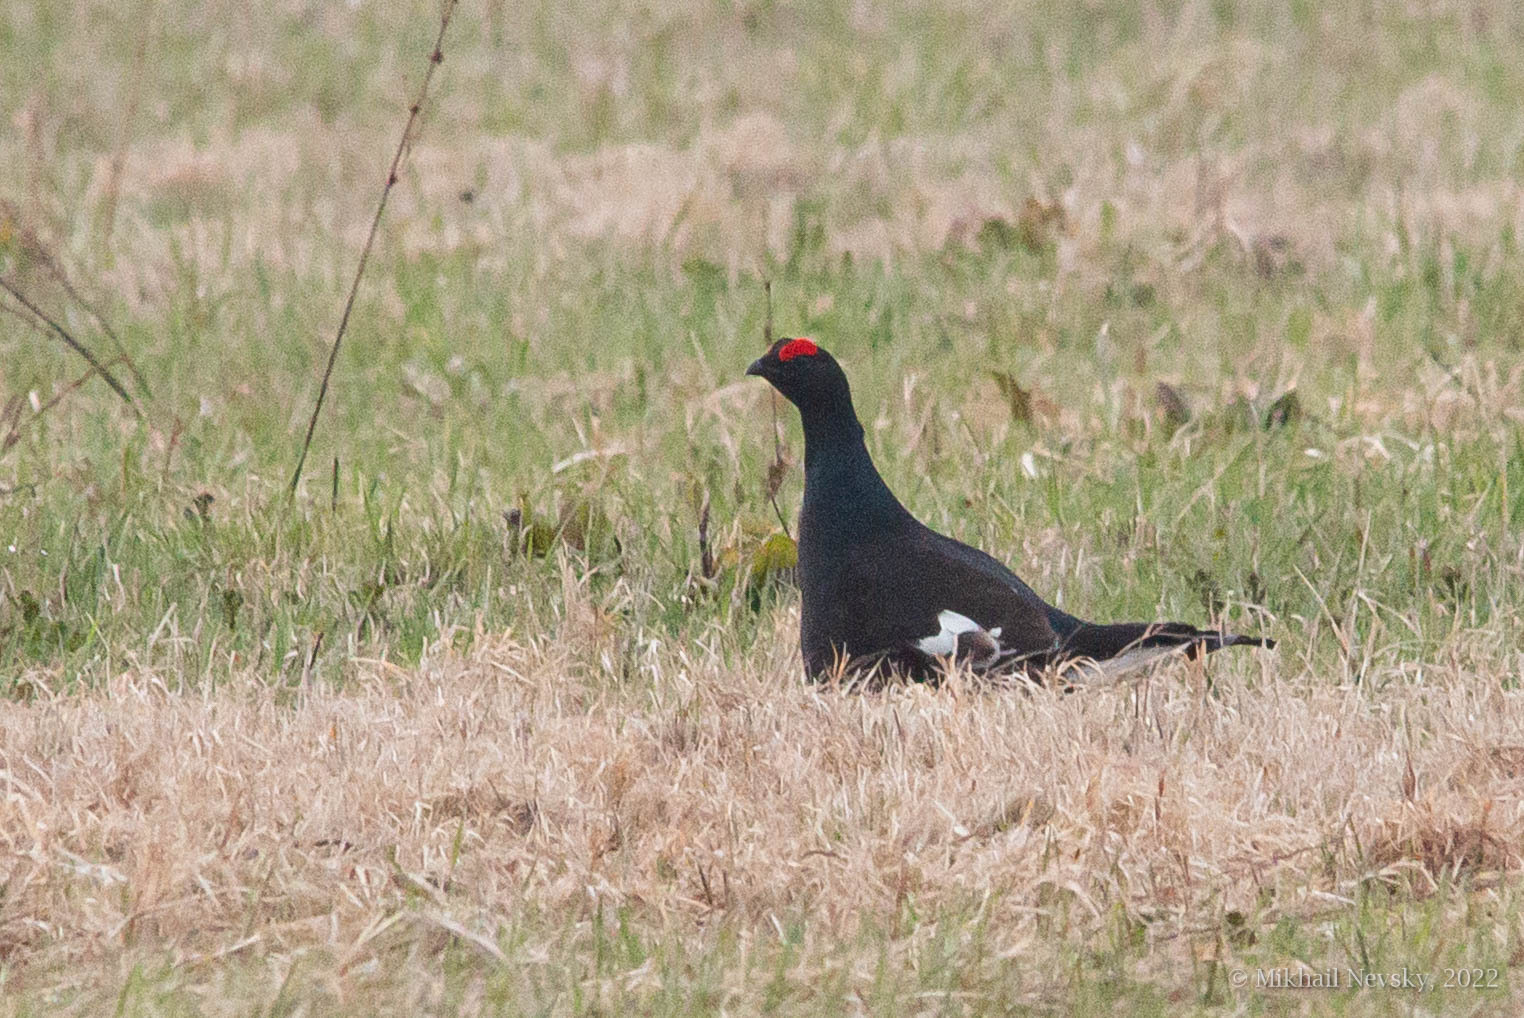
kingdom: Animalia
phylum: Chordata
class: Aves
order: Galliformes
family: Phasianidae
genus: Lyrurus
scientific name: Lyrurus tetrix
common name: Black grouse
